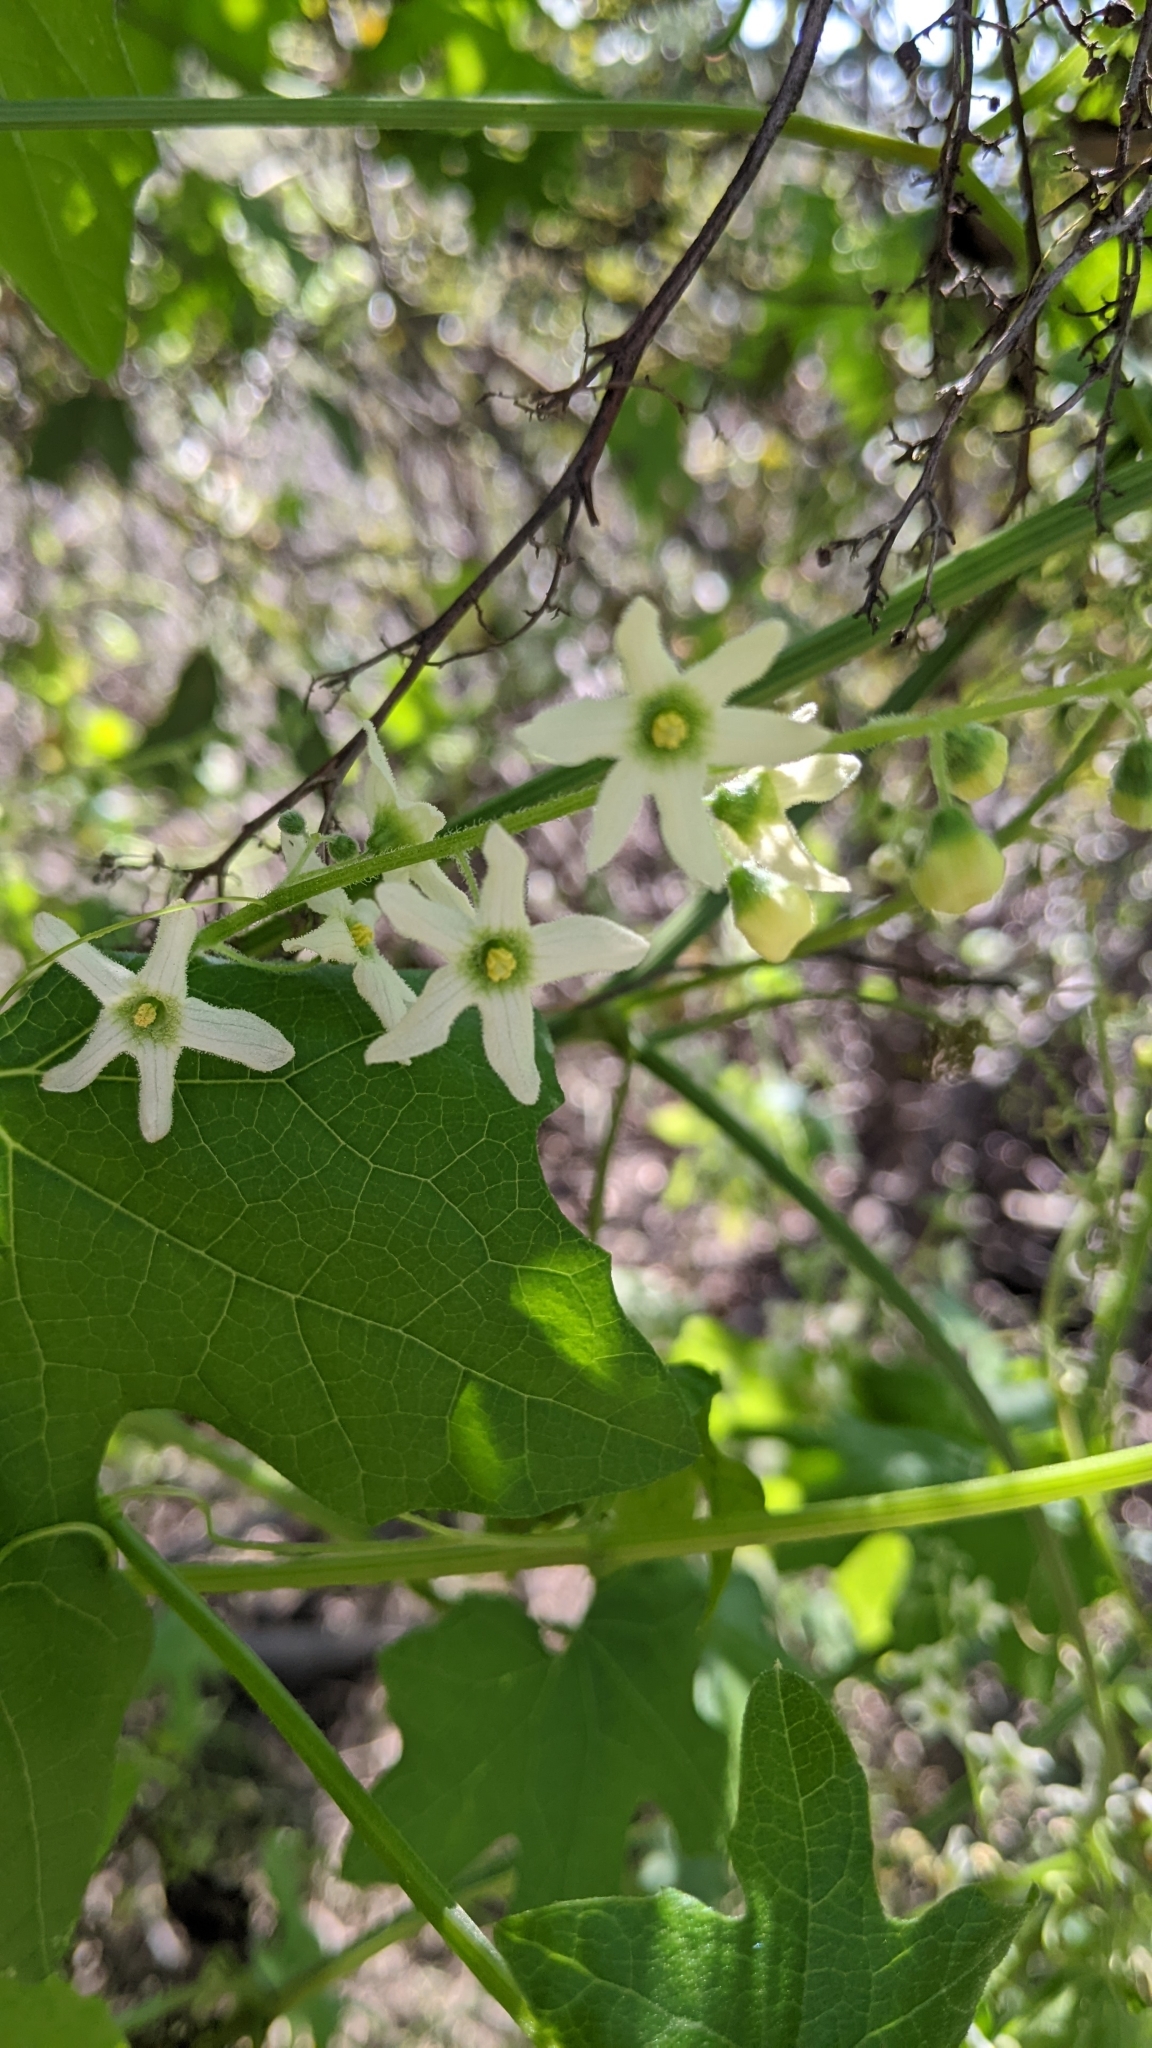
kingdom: Plantae
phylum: Tracheophyta
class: Magnoliopsida
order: Cucurbitales
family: Cucurbitaceae
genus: Marah
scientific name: Marah macrocarpa
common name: Cucamonga manroot
